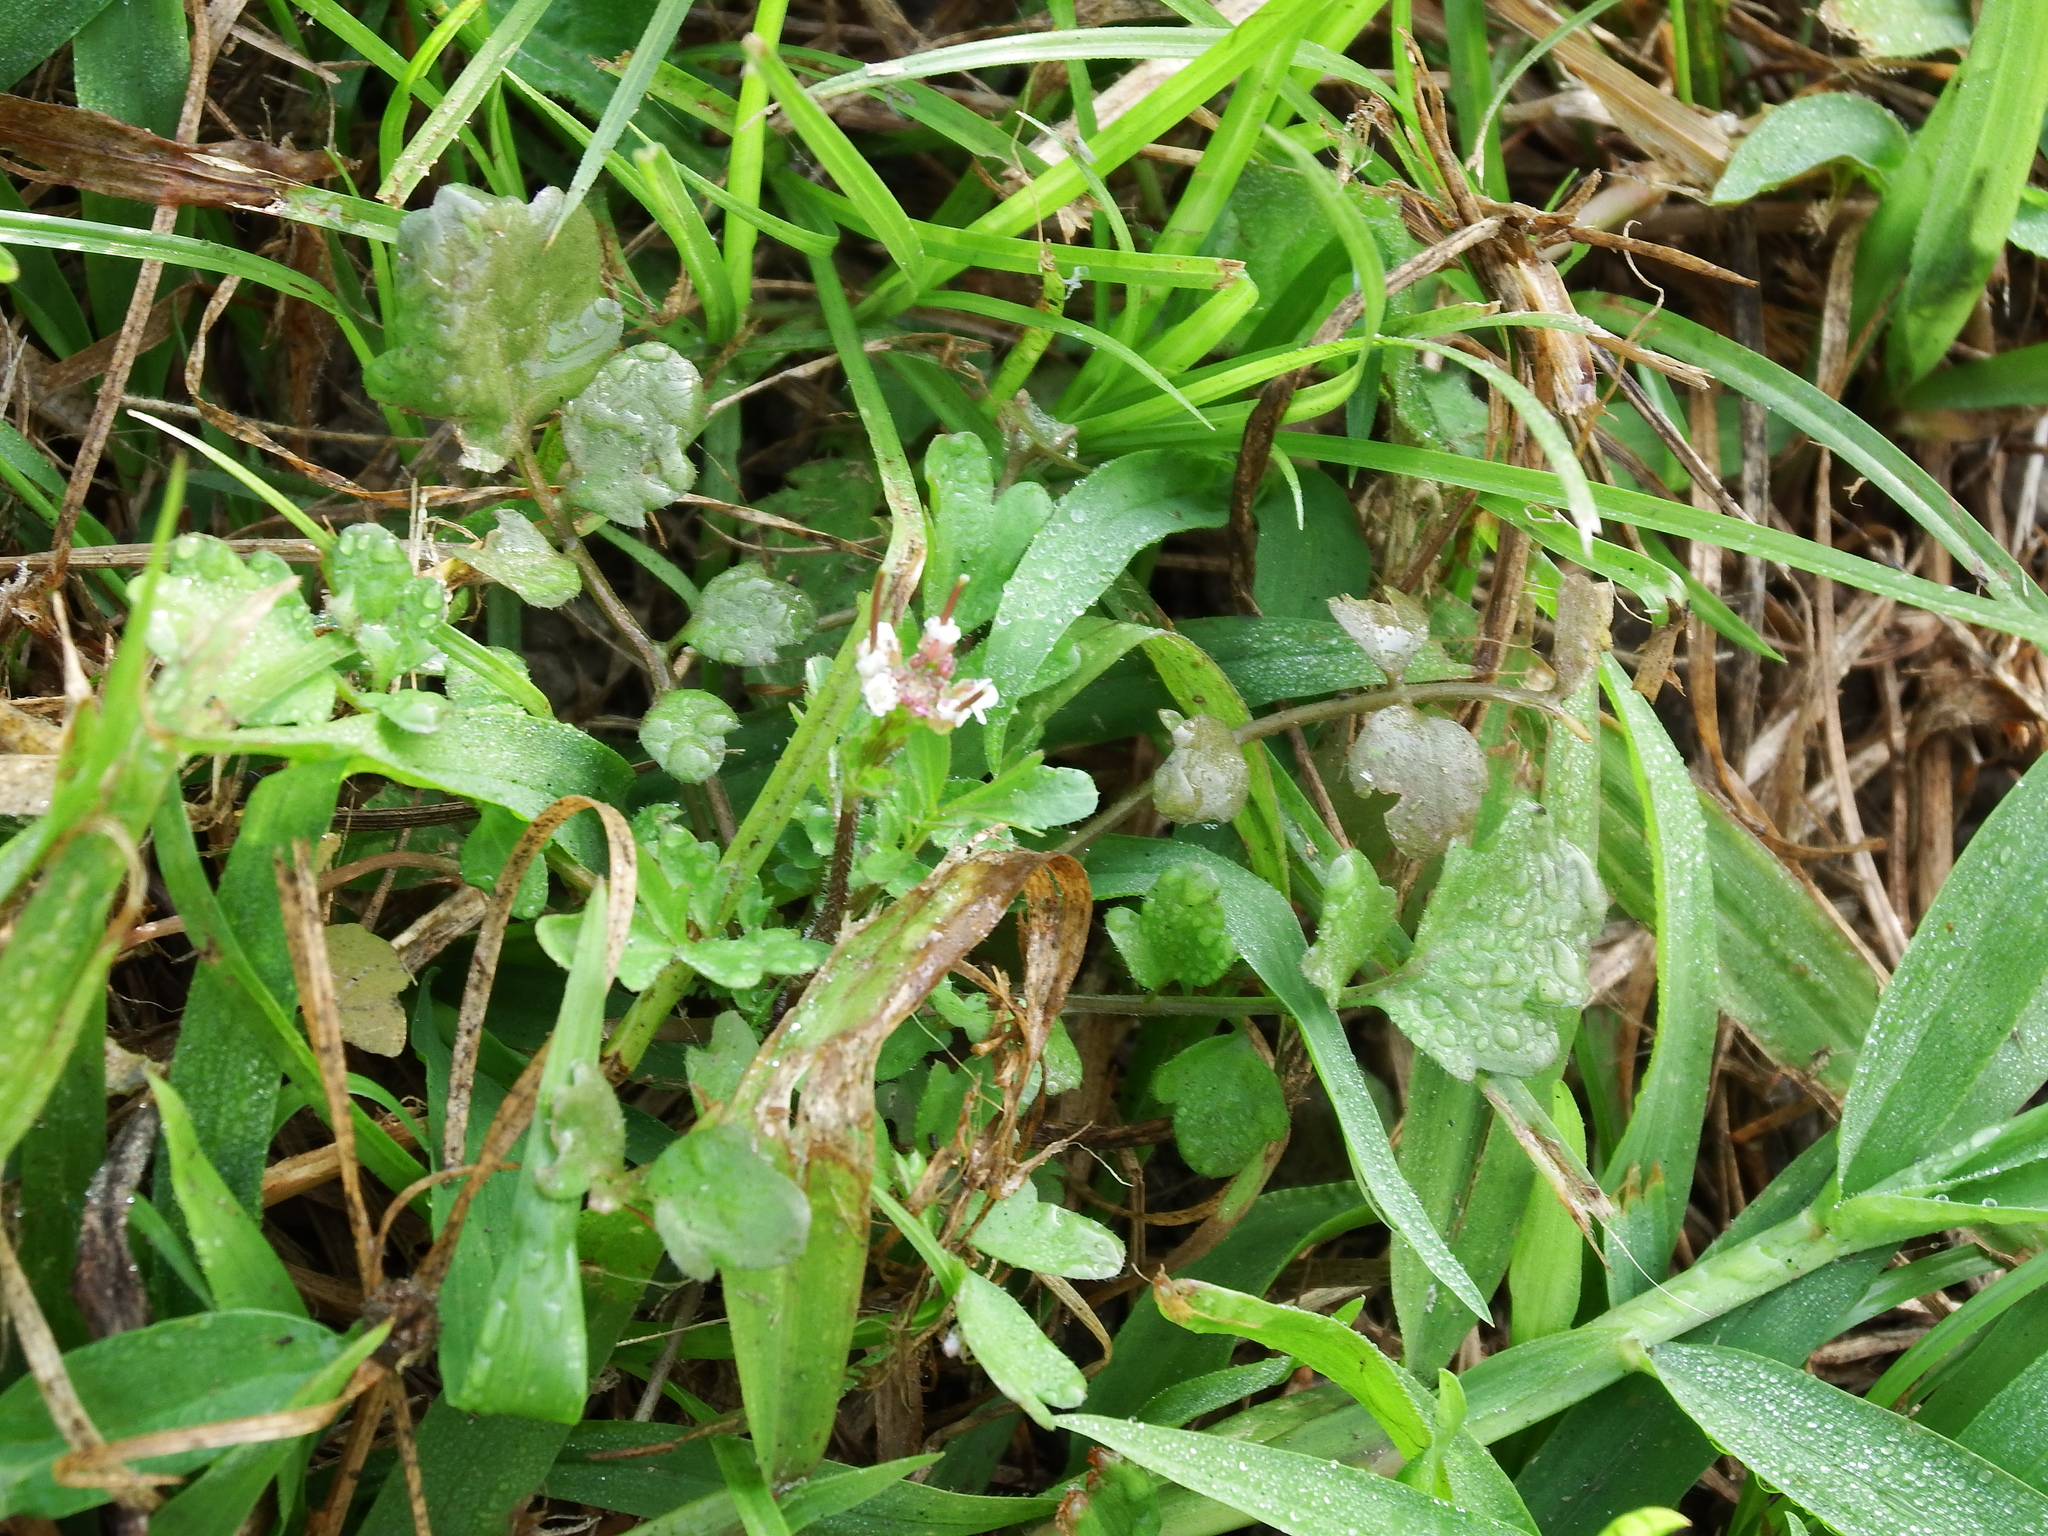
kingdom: Plantae
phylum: Tracheophyta
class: Magnoliopsida
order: Brassicales
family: Brassicaceae
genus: Cardamine
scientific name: Cardamine flexuosa
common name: Woodland bittercress
